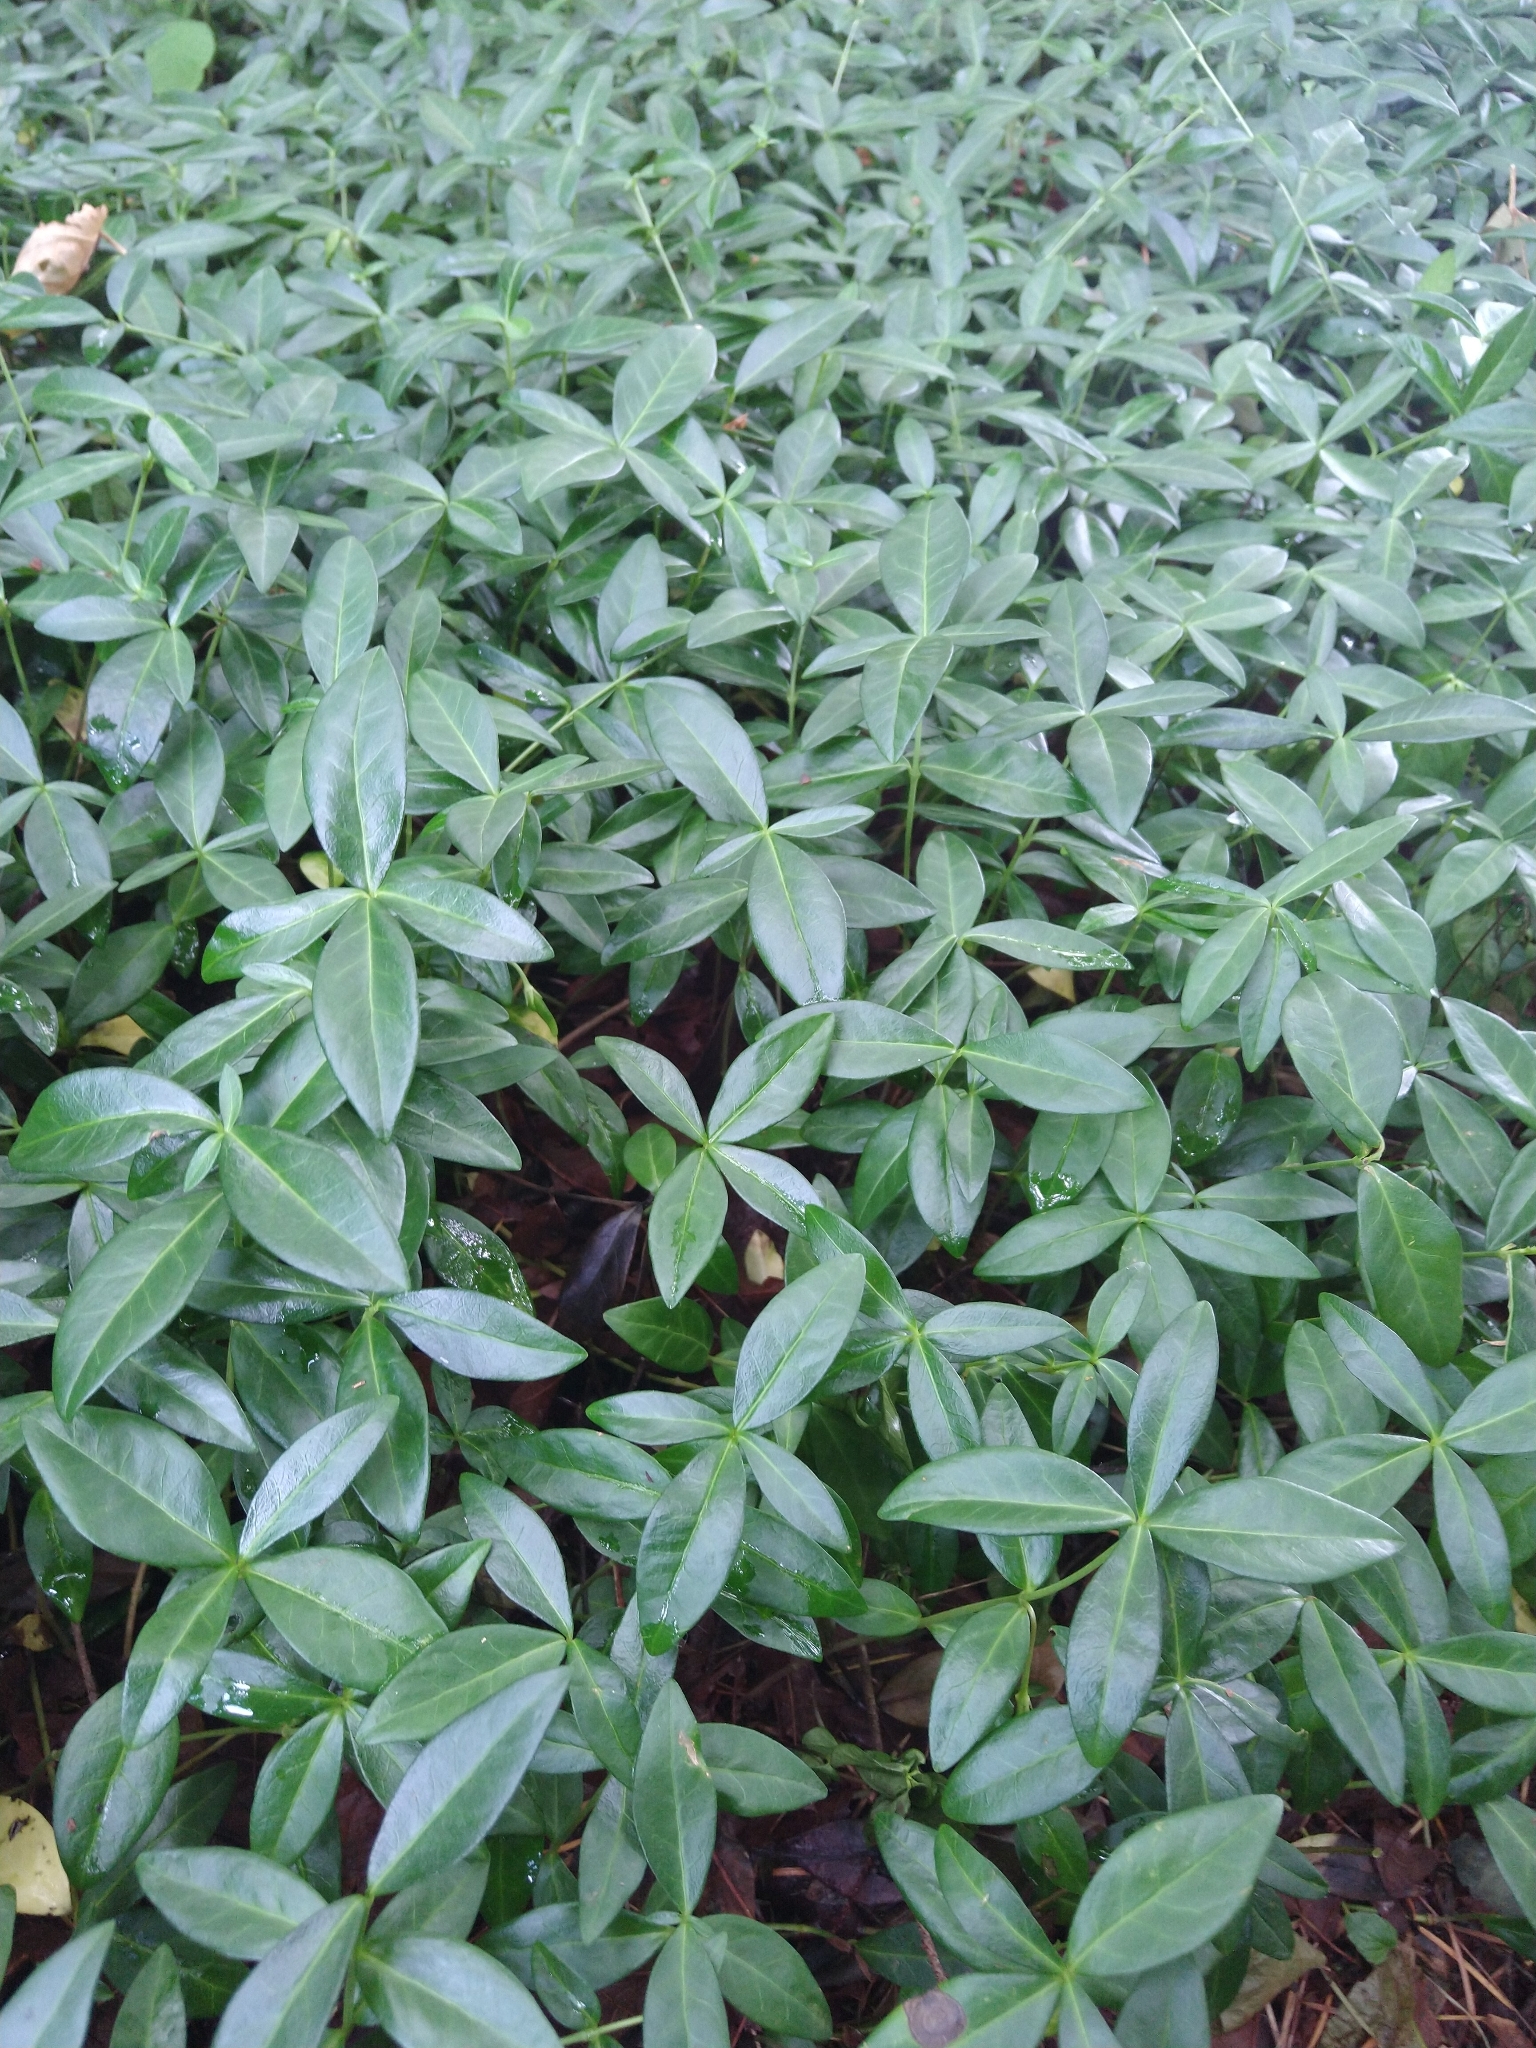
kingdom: Plantae
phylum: Tracheophyta
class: Magnoliopsida
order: Gentianales
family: Apocynaceae
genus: Vinca
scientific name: Vinca minor
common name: Lesser periwinkle
